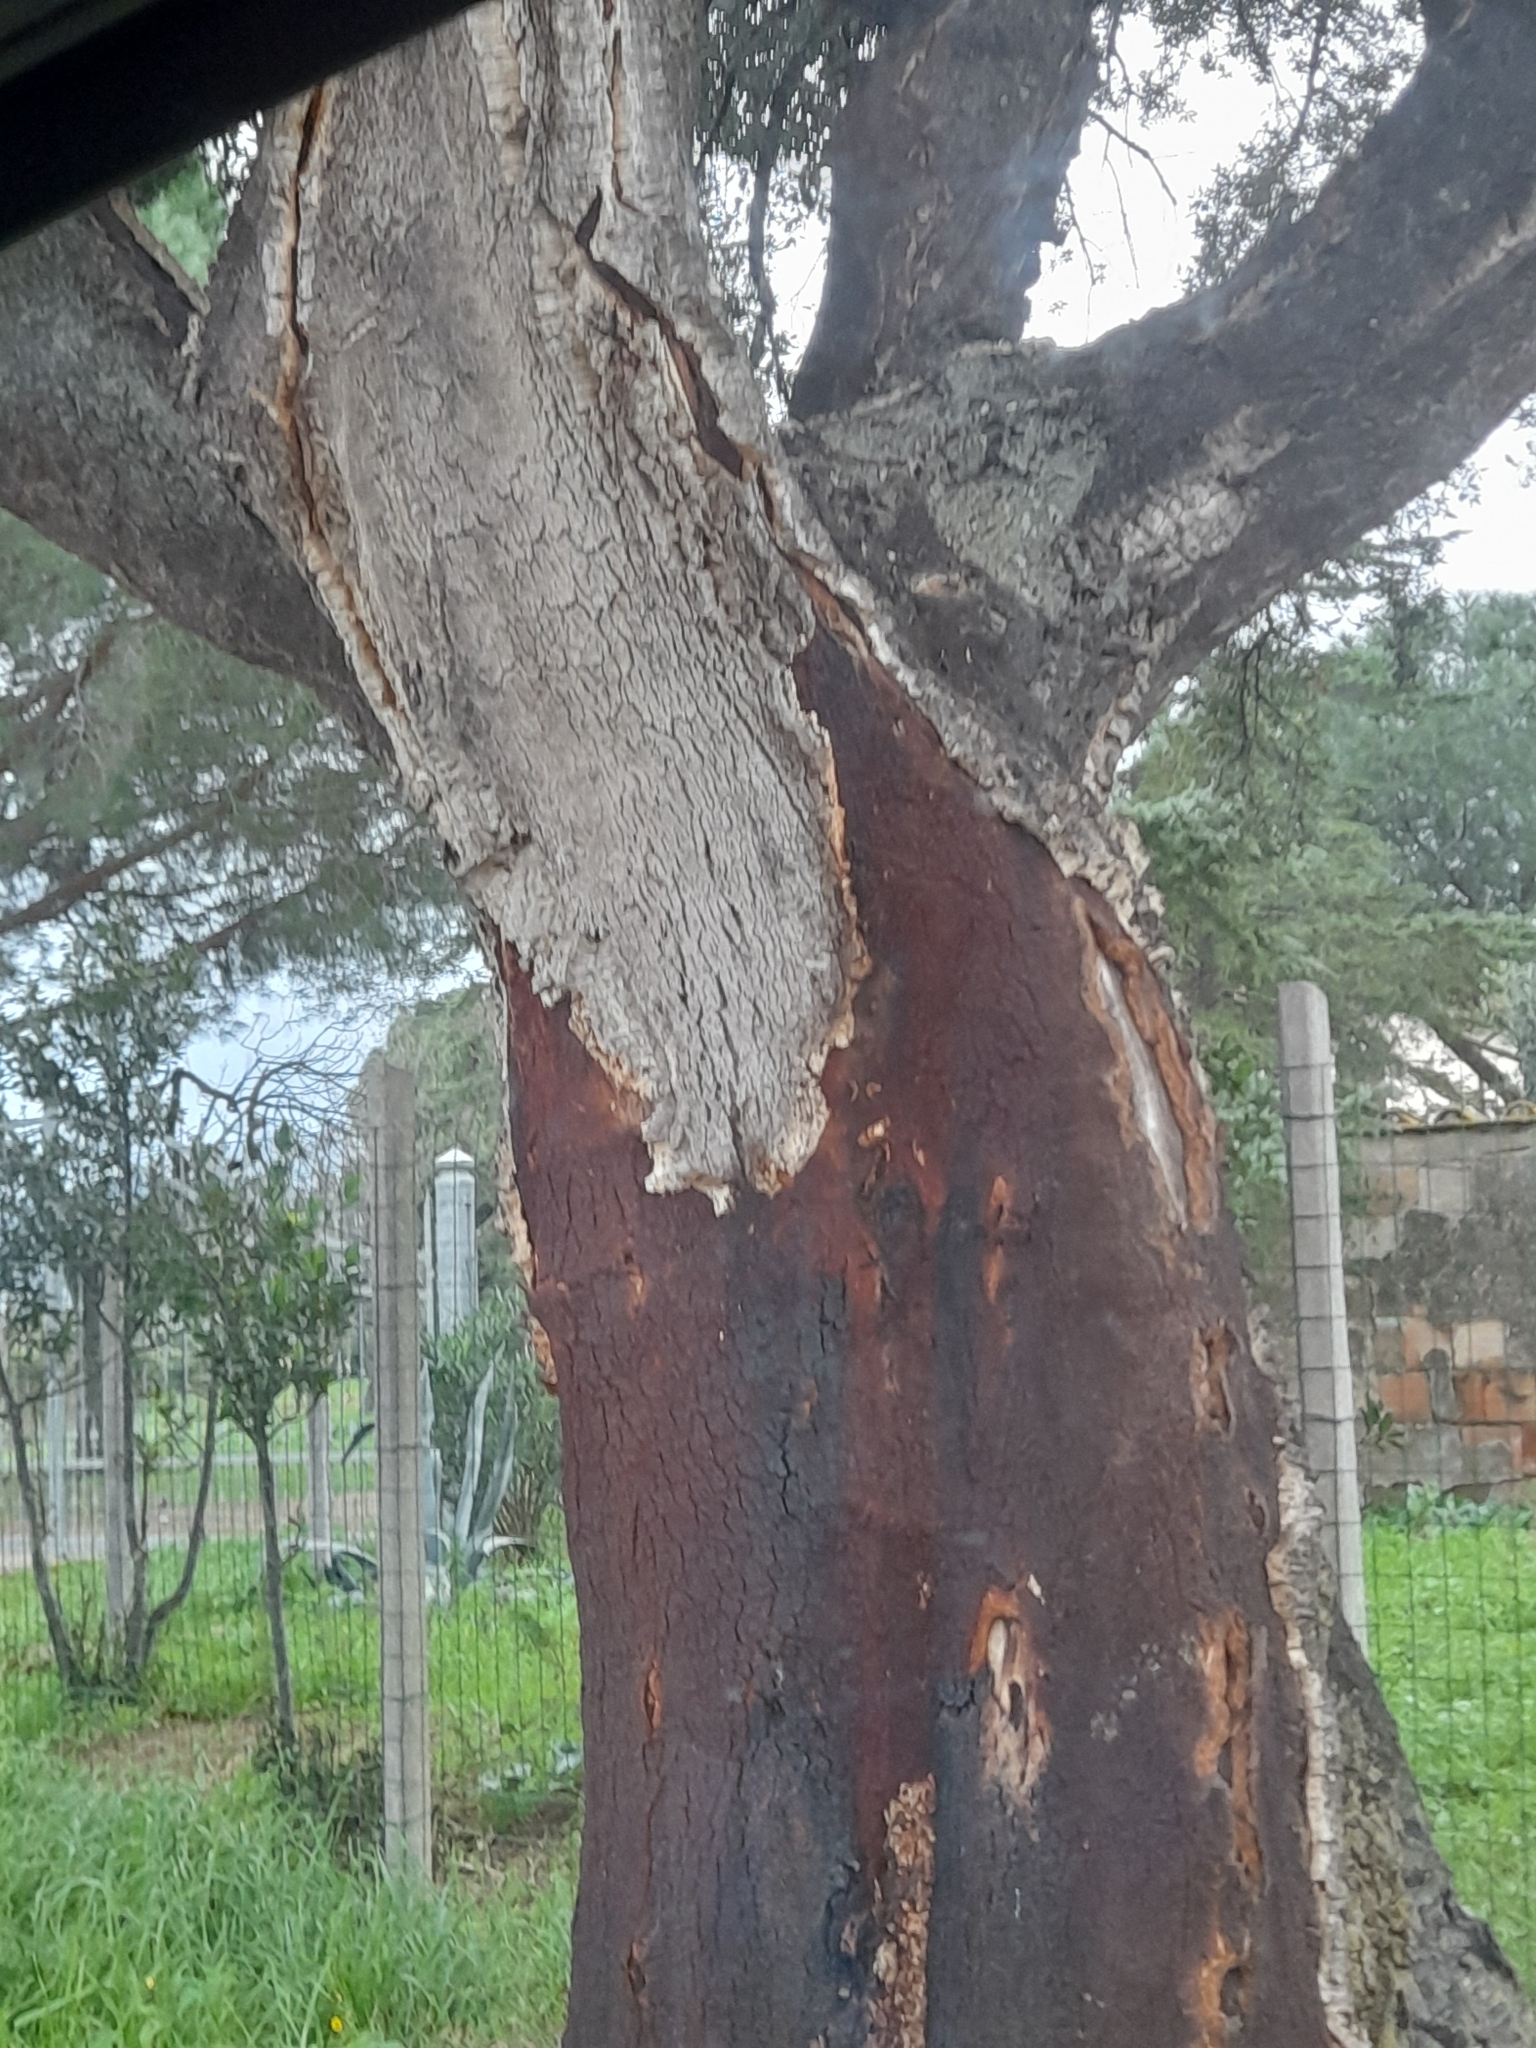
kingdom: Plantae
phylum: Tracheophyta
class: Magnoliopsida
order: Fagales
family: Fagaceae
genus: Quercus
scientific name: Quercus suber
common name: Cork oak
